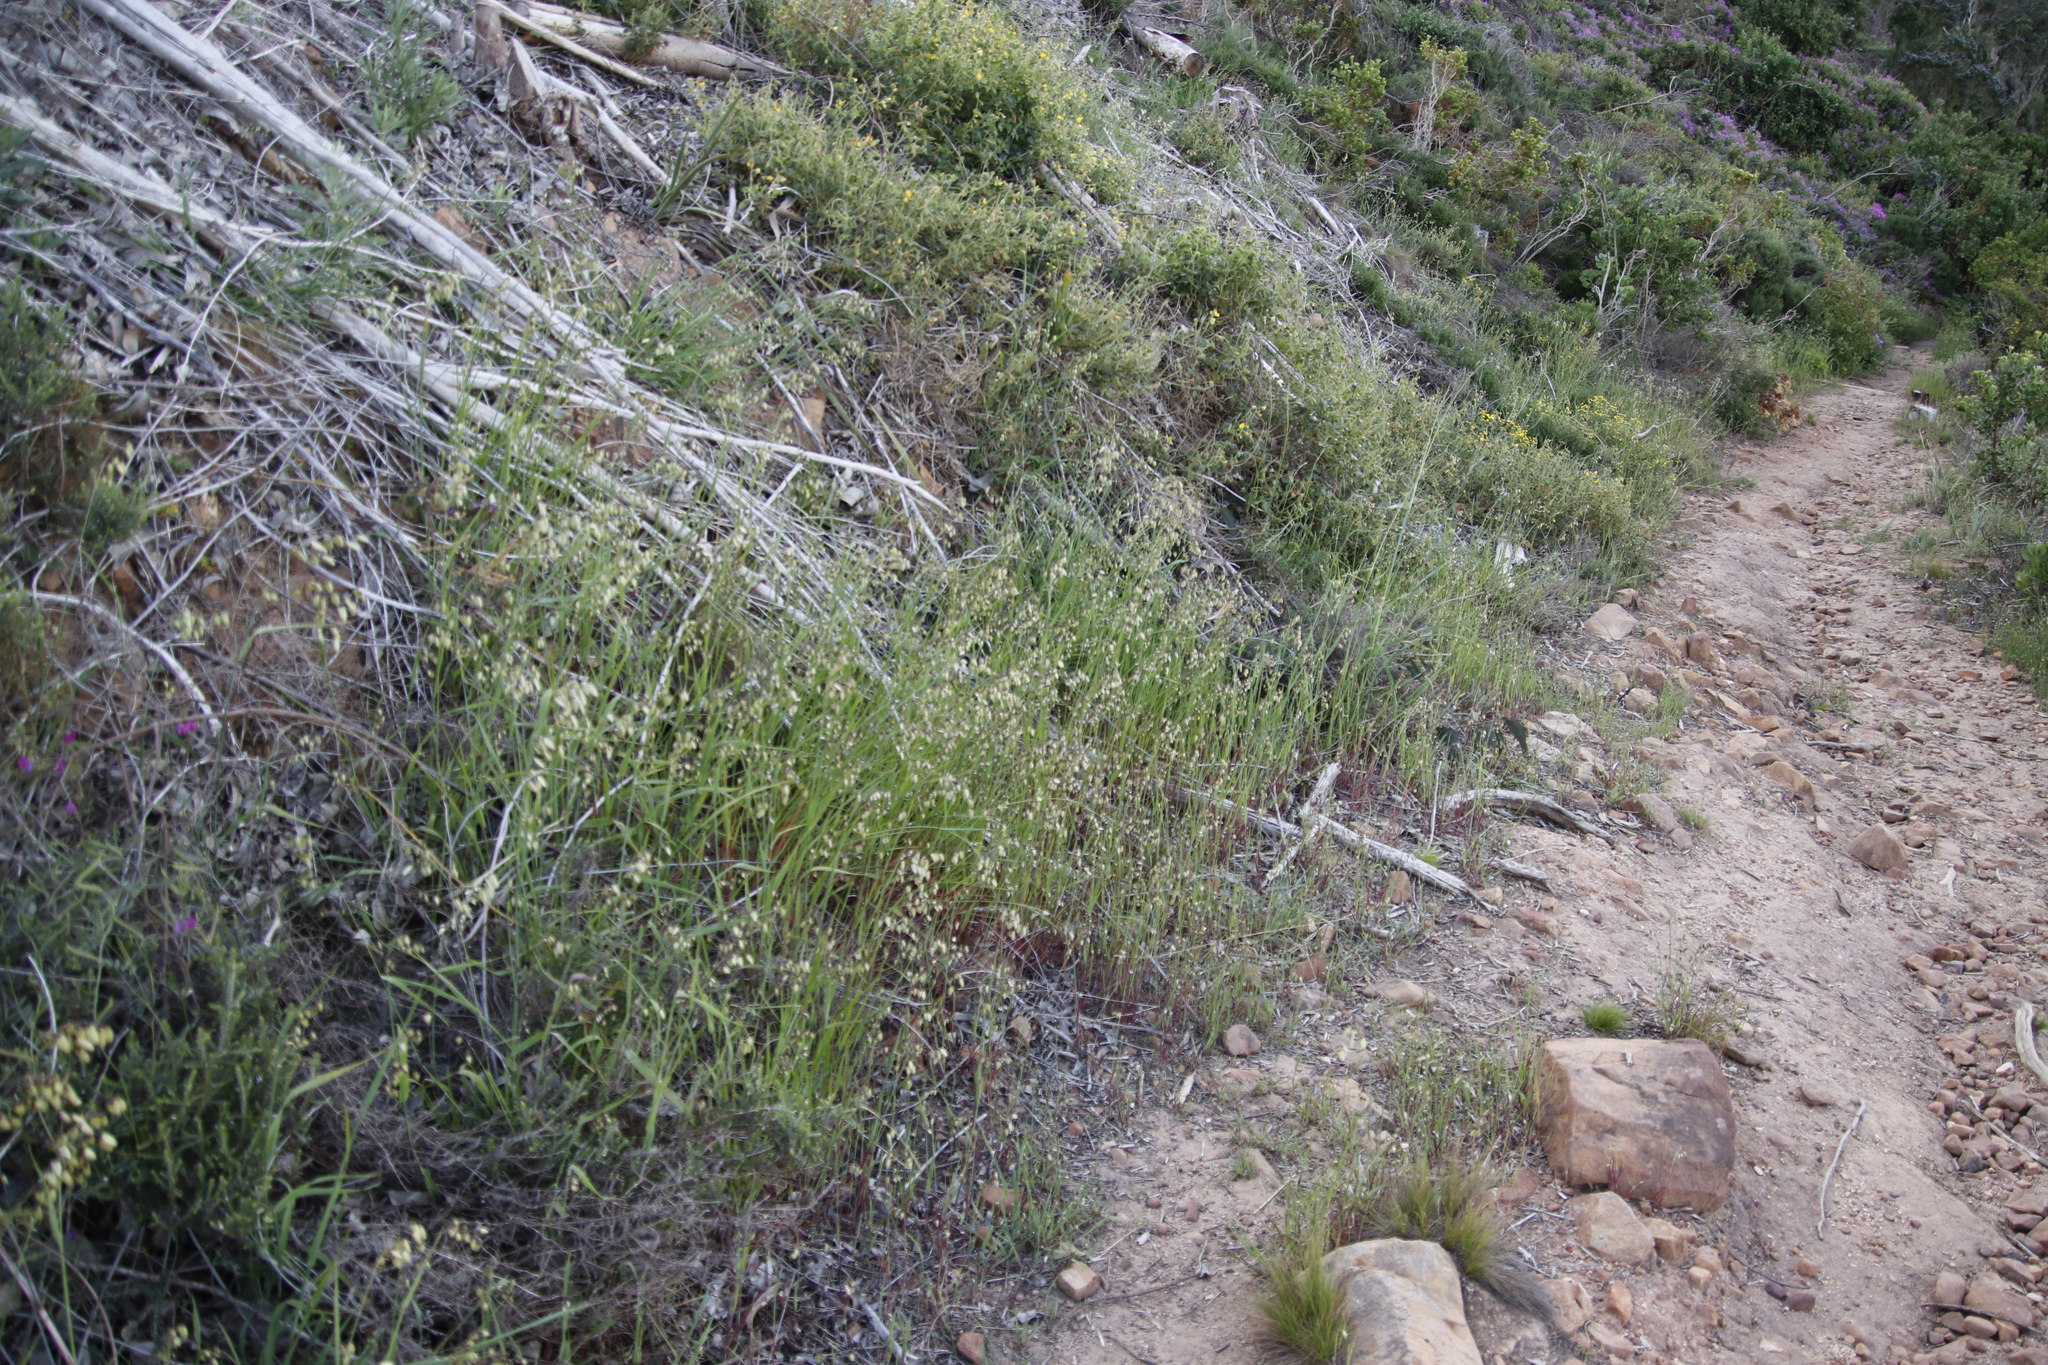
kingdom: Plantae
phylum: Tracheophyta
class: Liliopsida
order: Poales
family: Poaceae
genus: Briza
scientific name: Briza maxima
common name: Big quakinggrass
